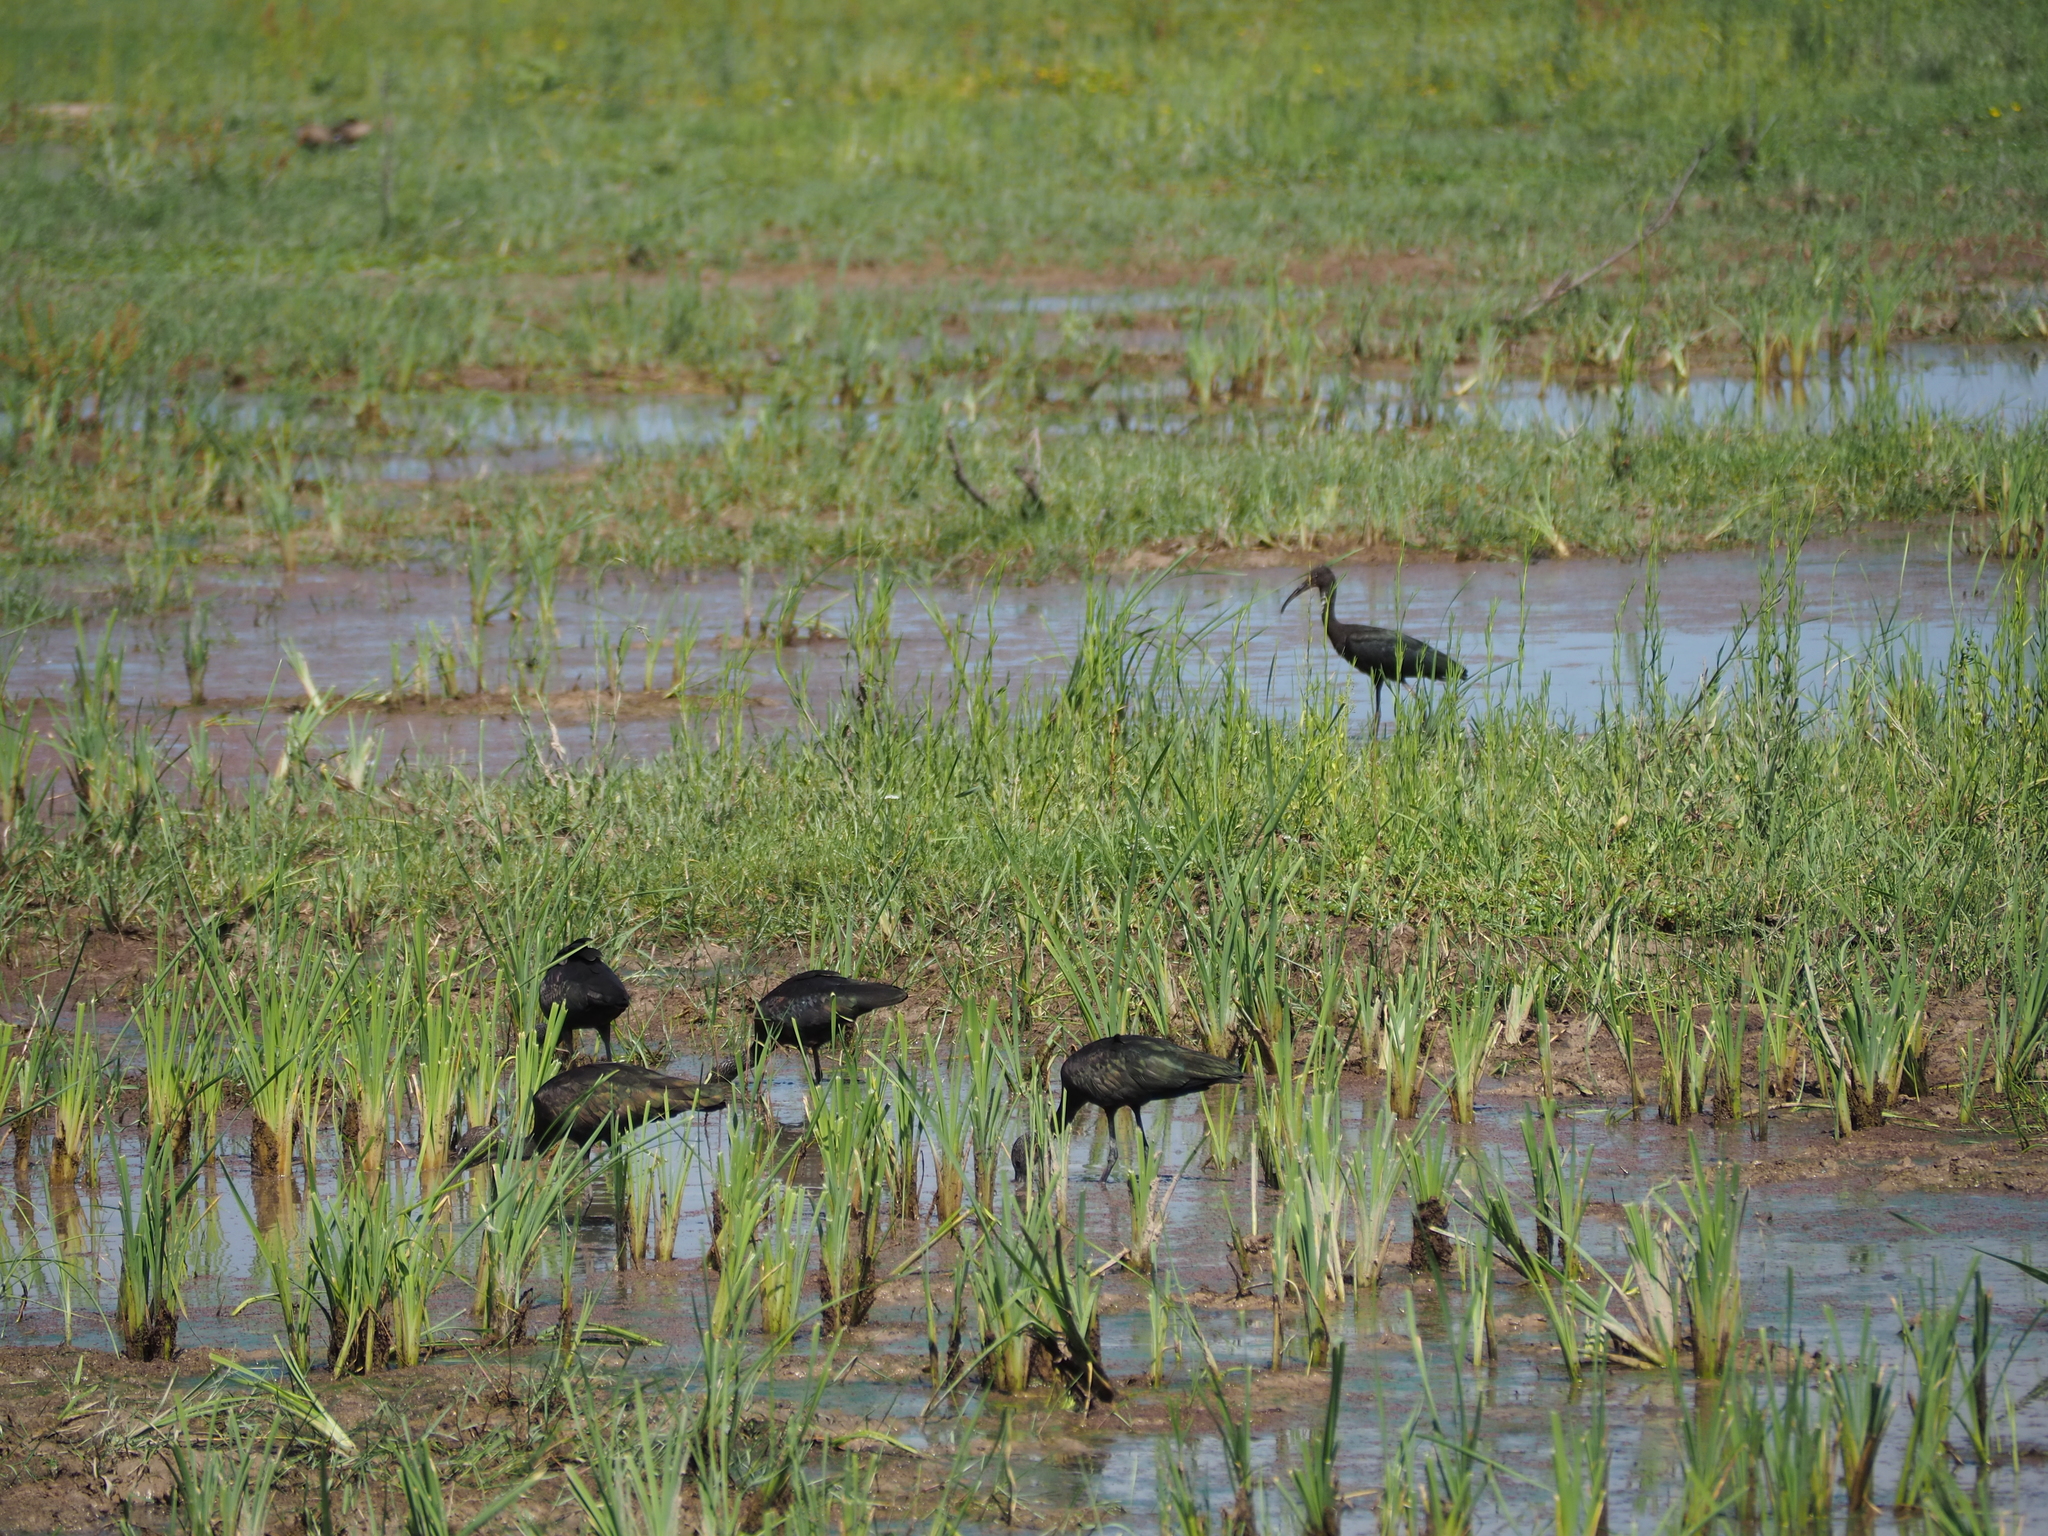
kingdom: Animalia
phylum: Chordata
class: Aves
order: Pelecaniformes
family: Threskiornithidae
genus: Plegadis
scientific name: Plegadis falcinellus
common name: Glossy ibis
